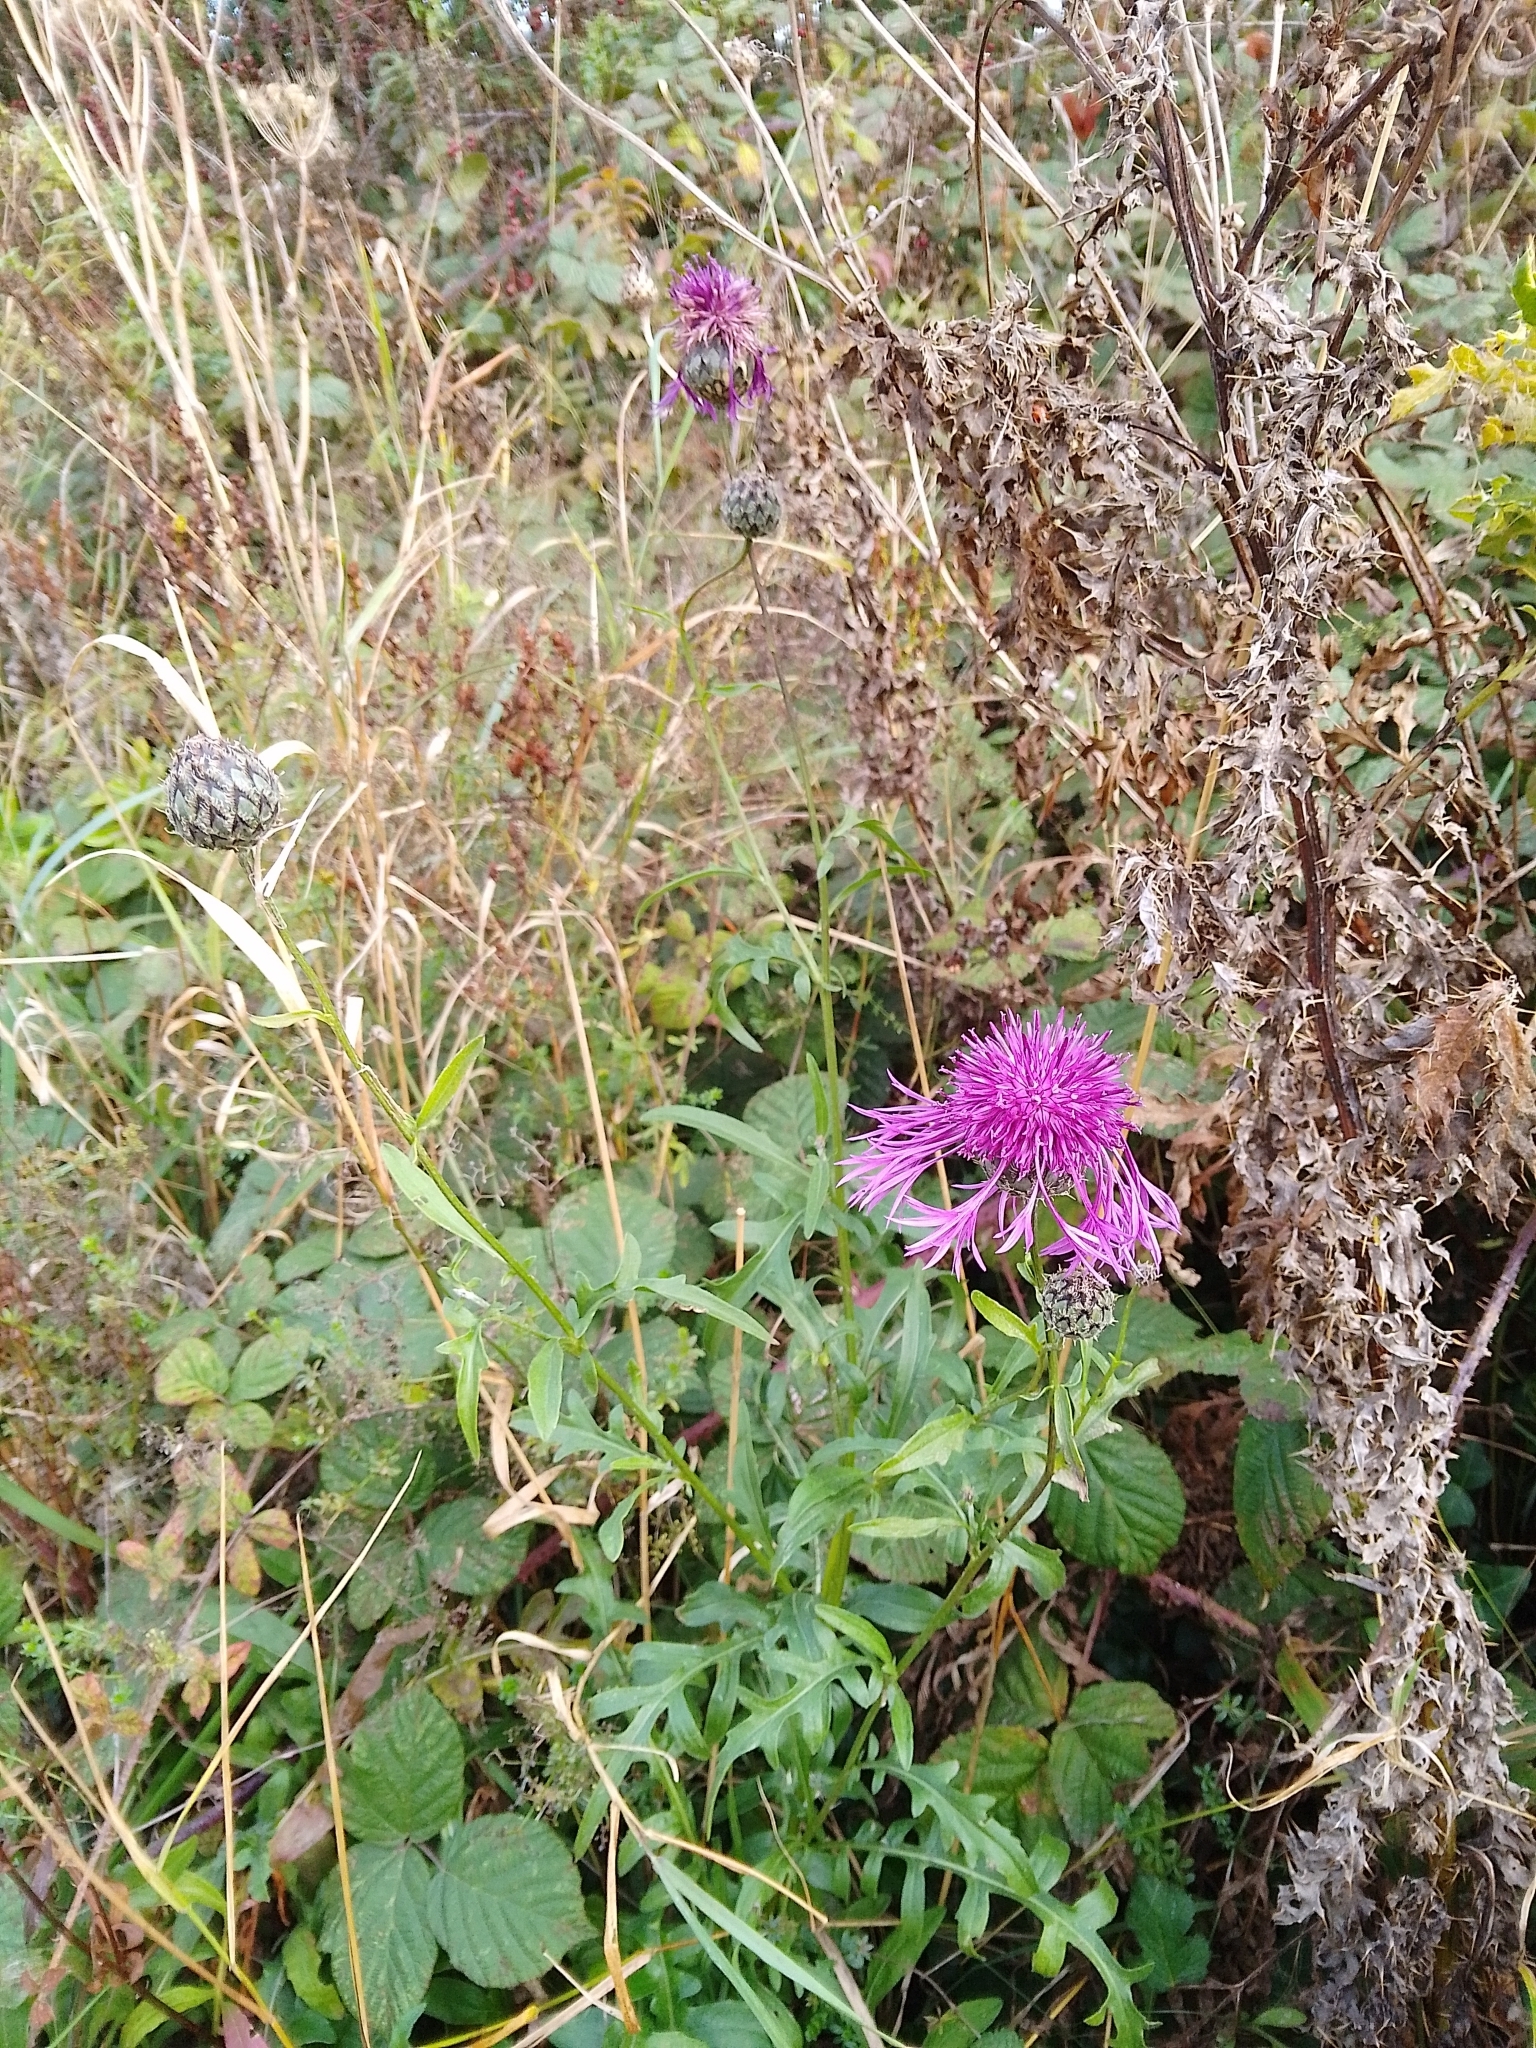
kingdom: Plantae
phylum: Tracheophyta
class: Magnoliopsida
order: Asterales
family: Asteraceae
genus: Centaurea
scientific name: Centaurea scabiosa
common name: Greater knapweed
